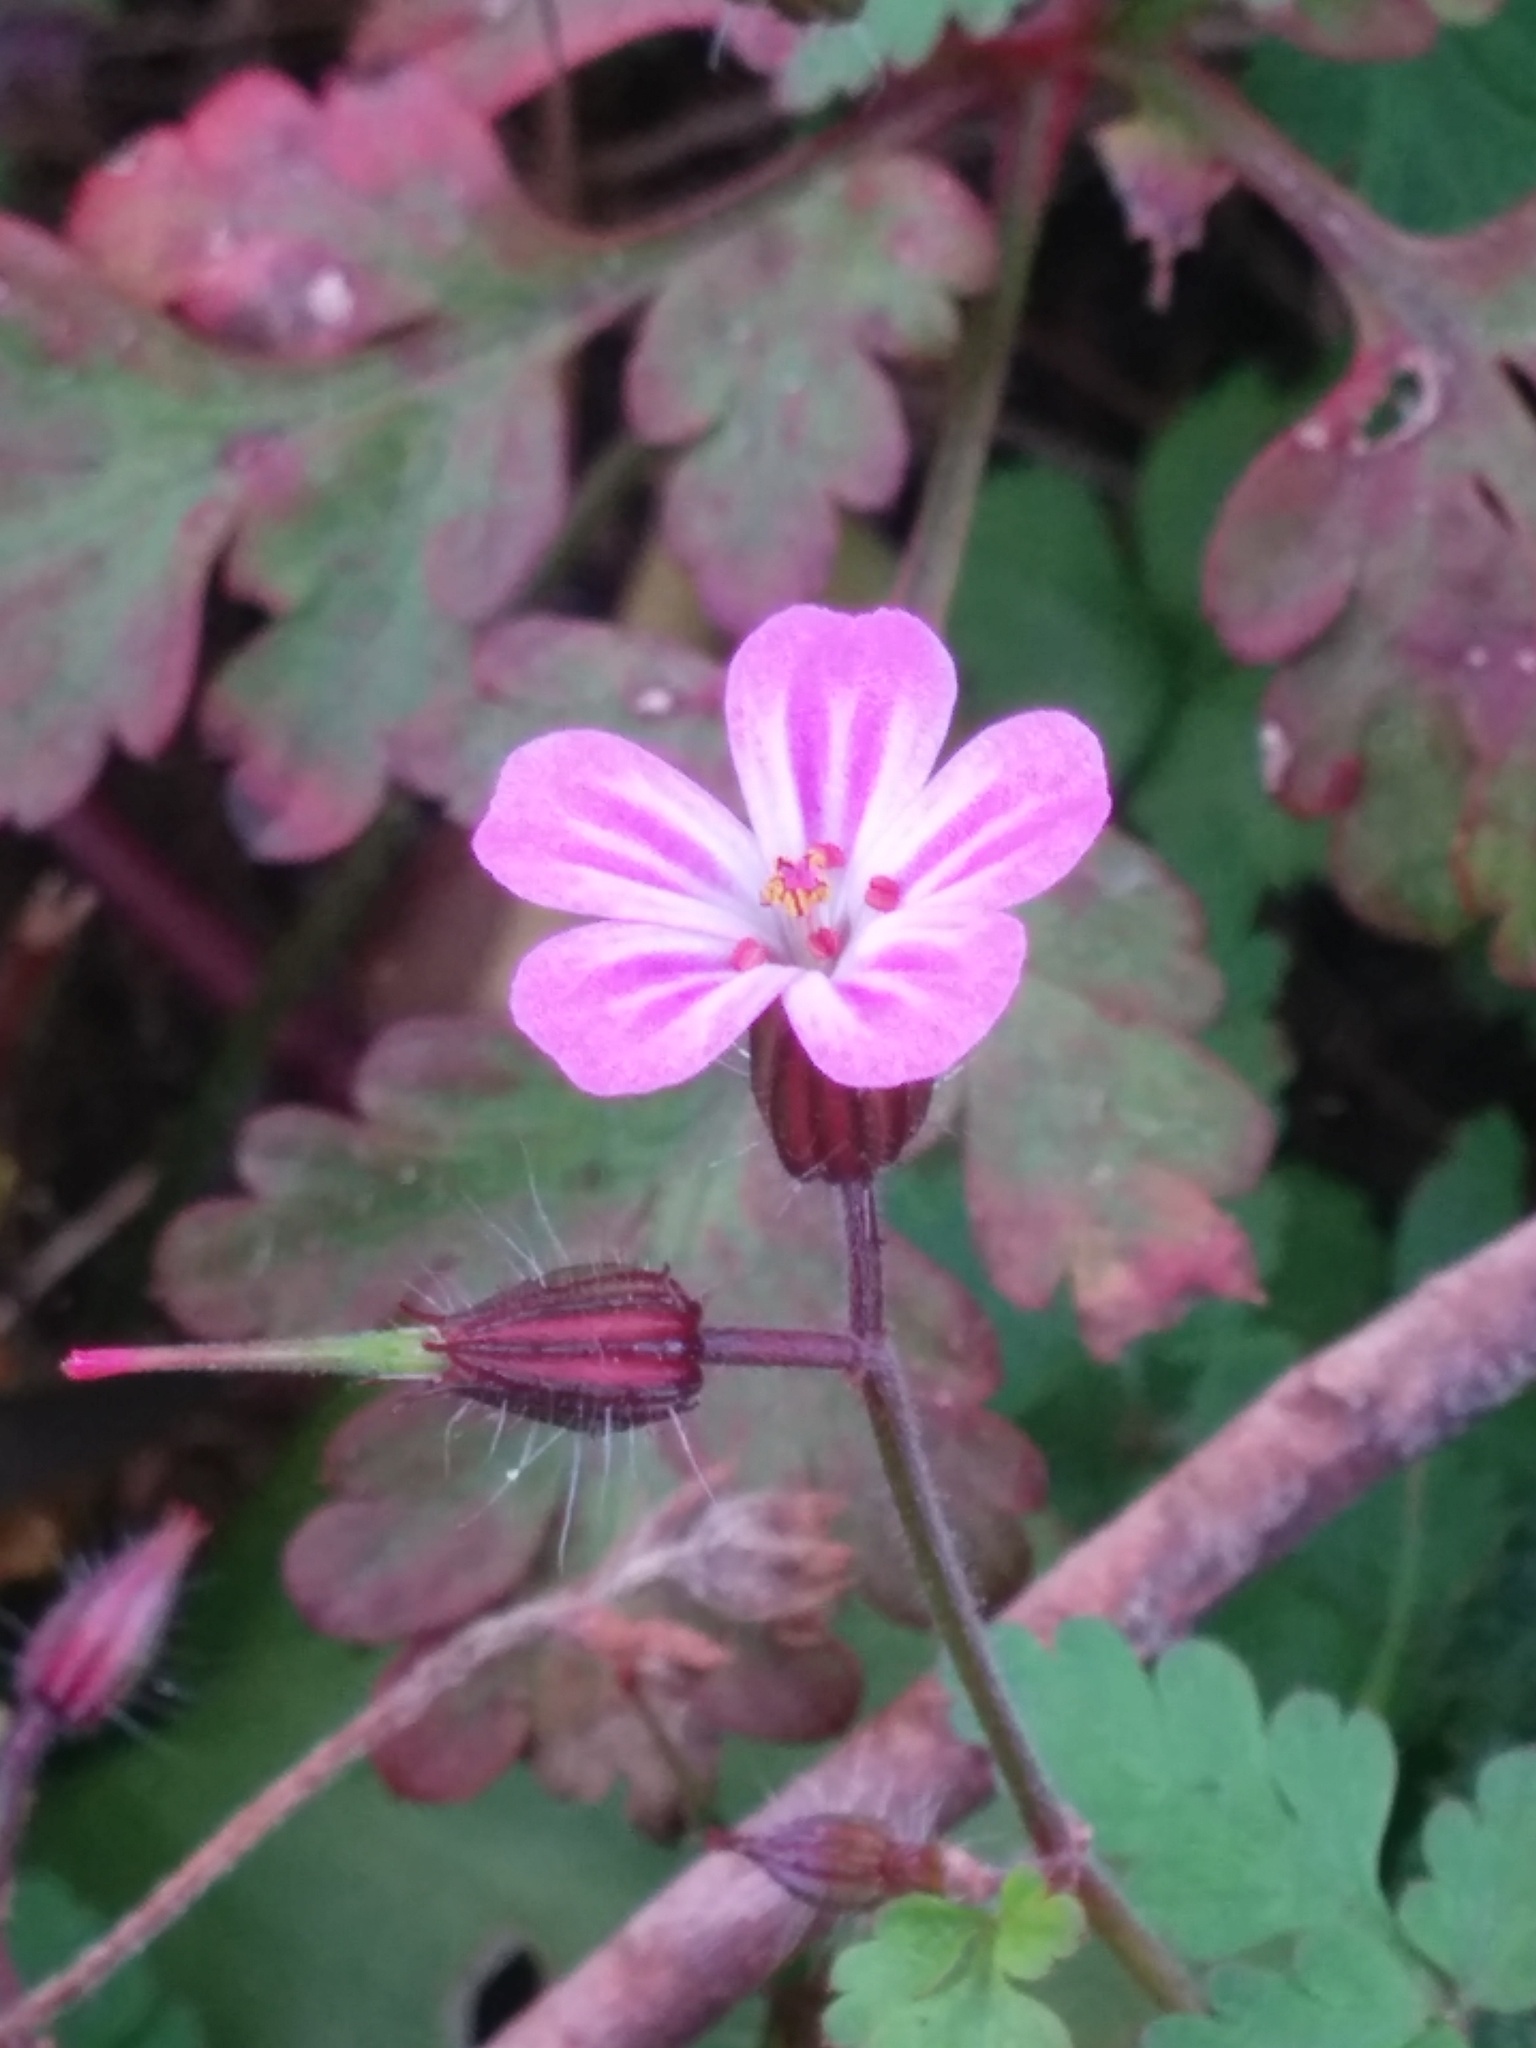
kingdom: Plantae
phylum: Tracheophyta
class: Magnoliopsida
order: Geraniales
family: Geraniaceae
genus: Geranium
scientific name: Geranium robertianum
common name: Herb-robert
